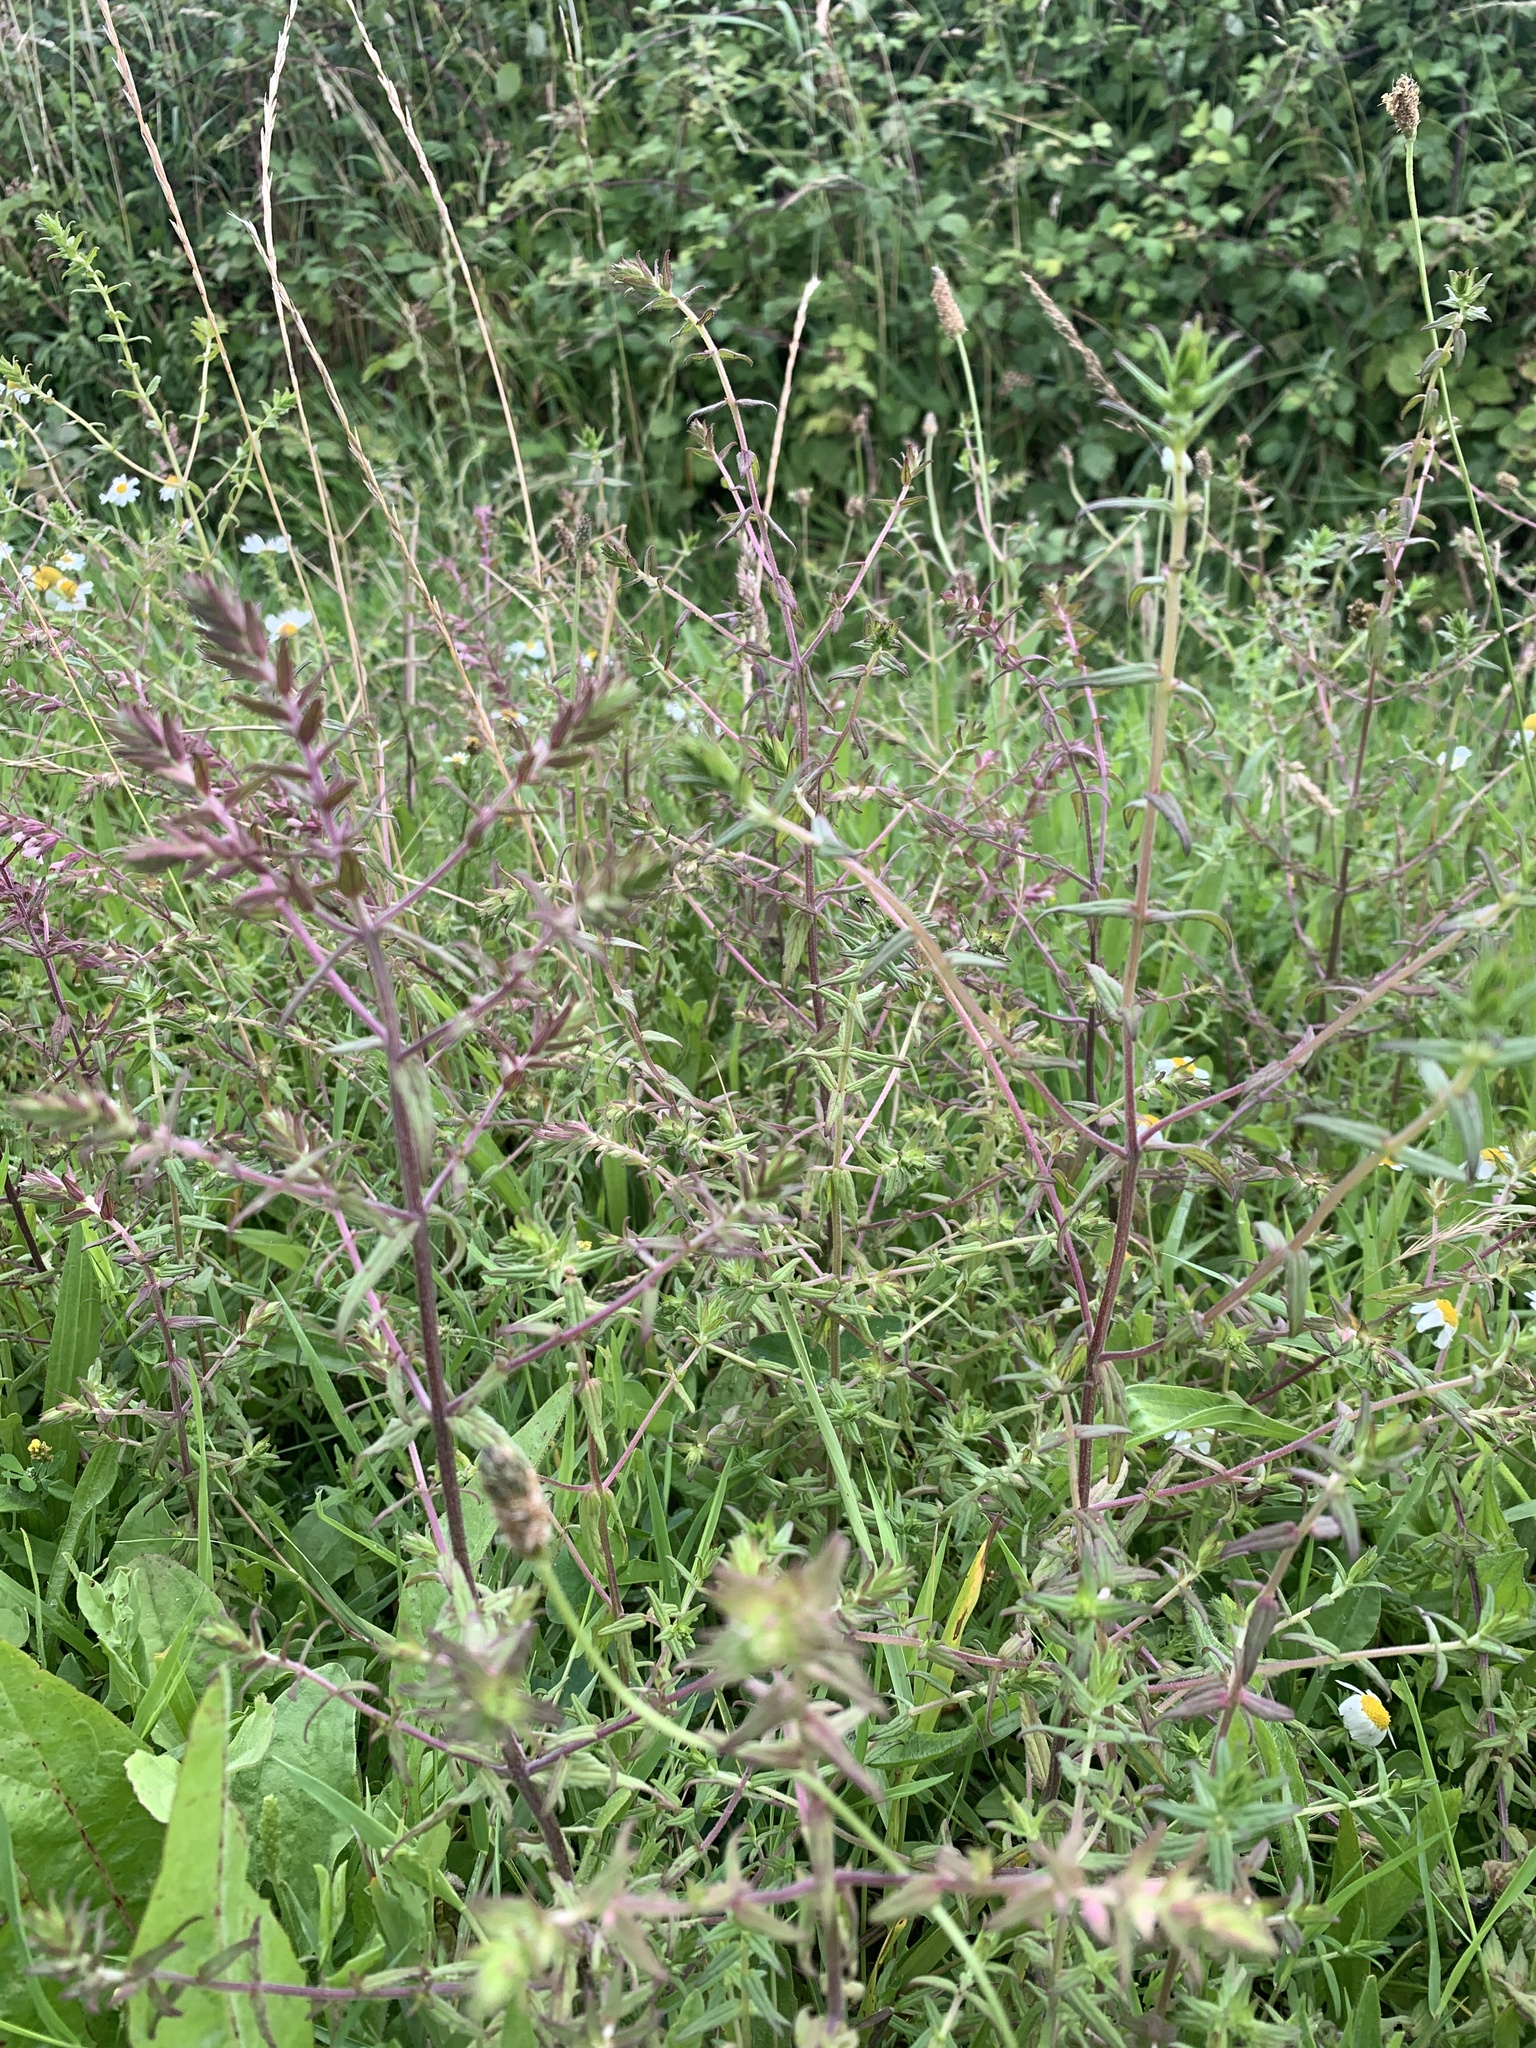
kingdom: Plantae
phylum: Tracheophyta
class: Magnoliopsida
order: Lamiales
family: Orobanchaceae
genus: Odontites
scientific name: Odontites vulgaris
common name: Broomrape
